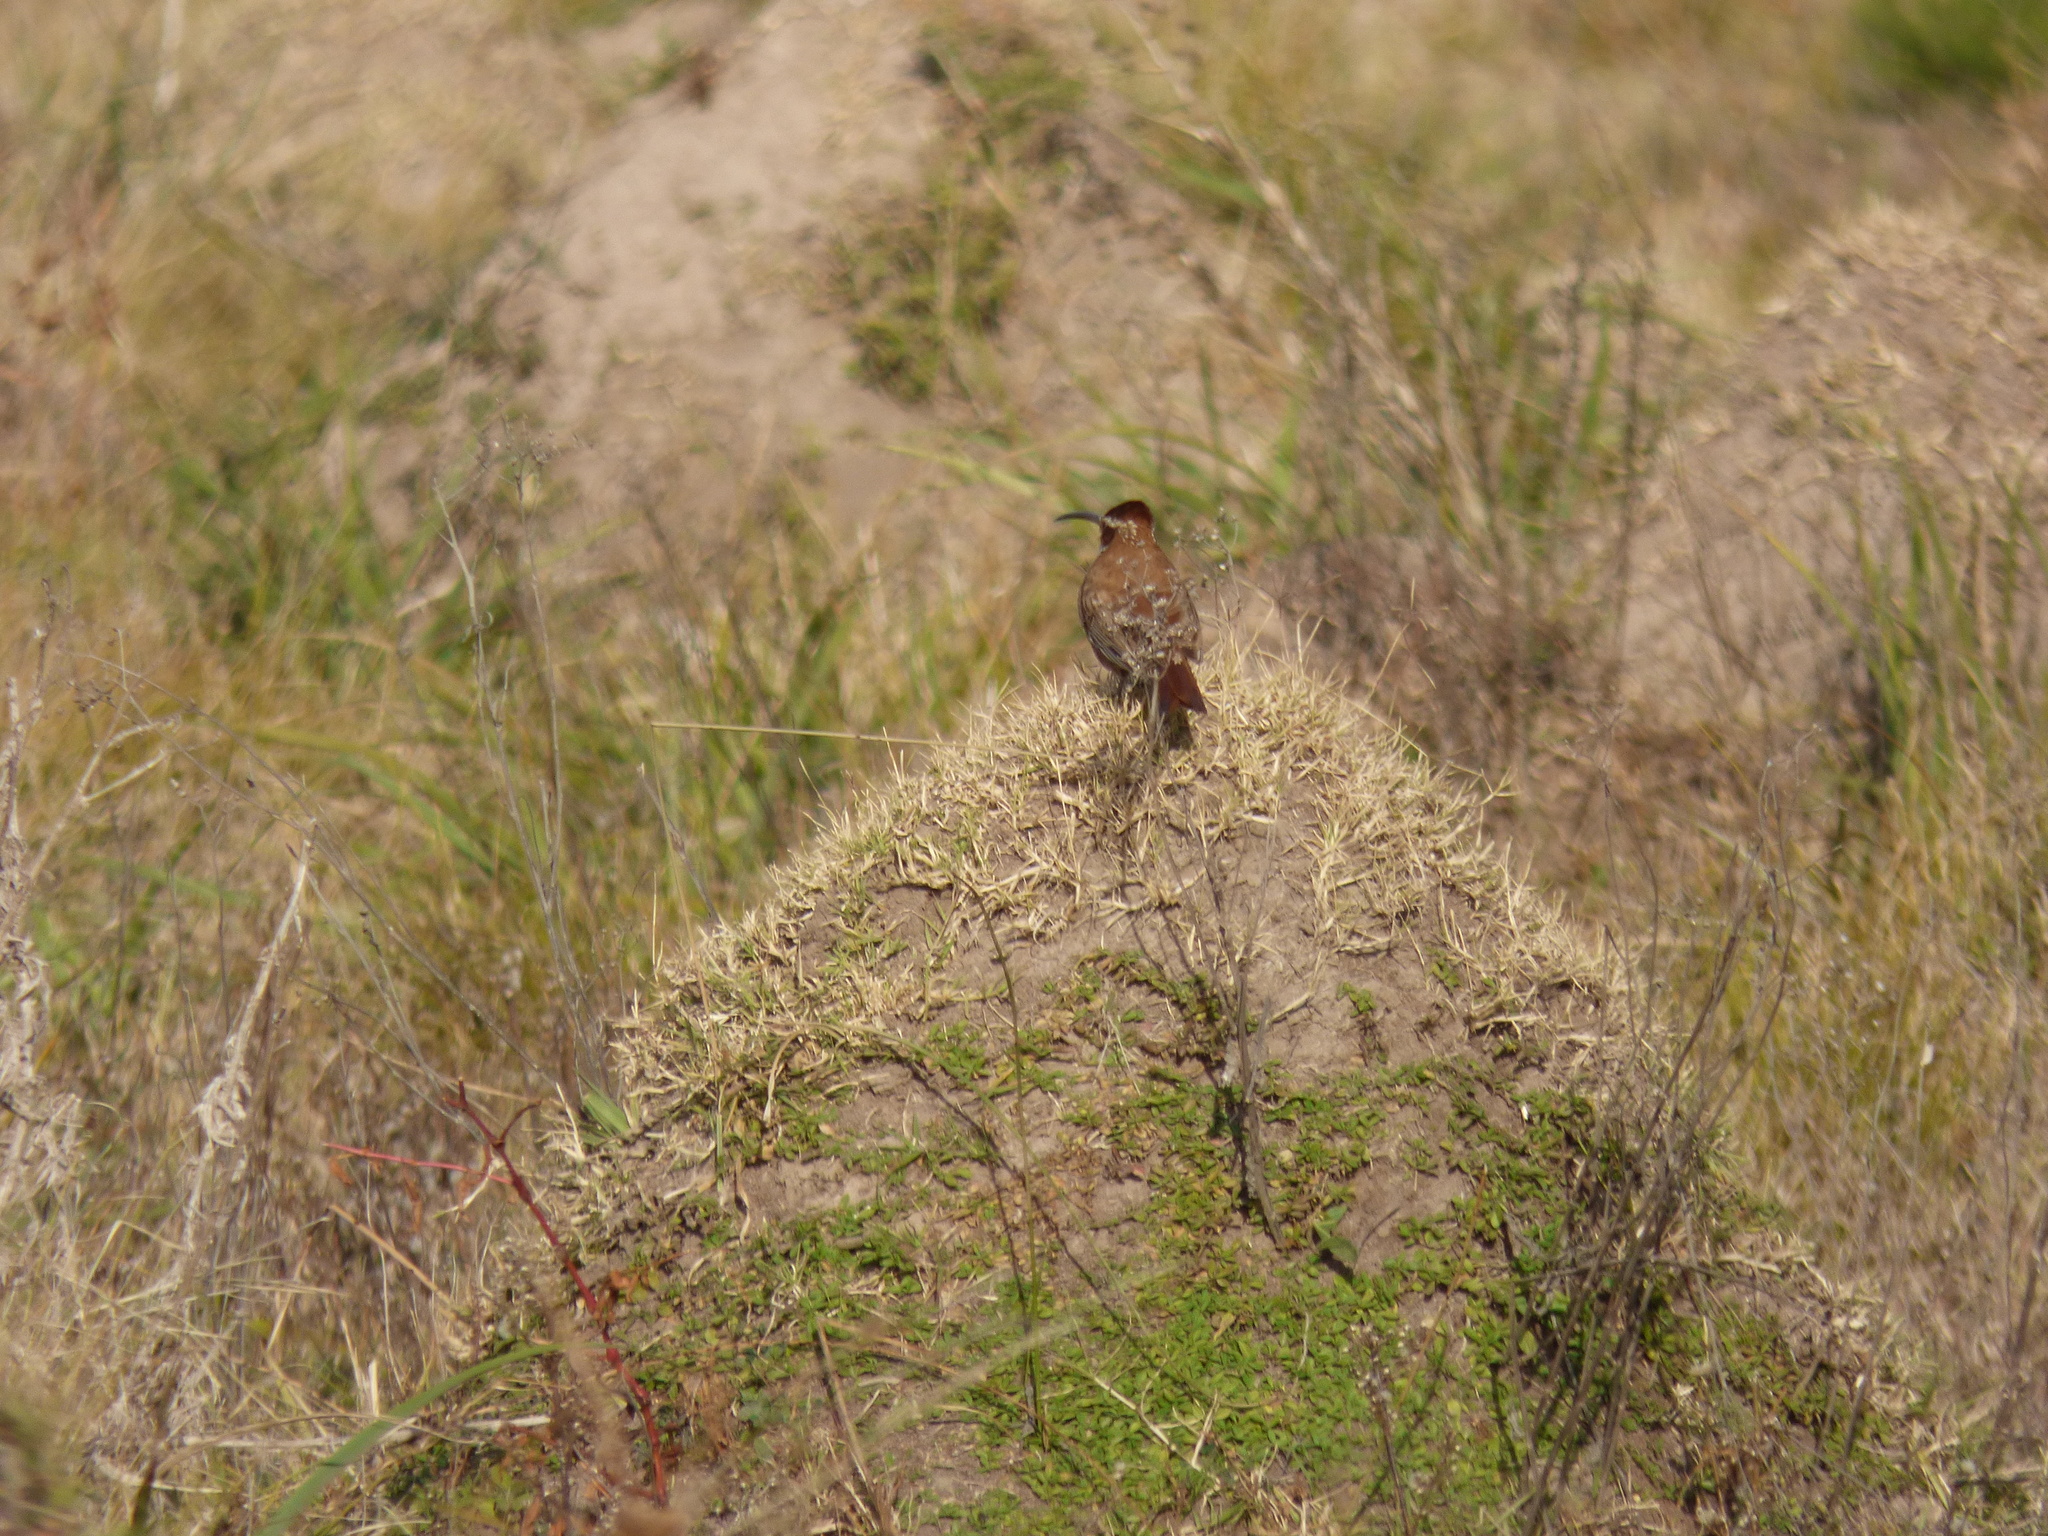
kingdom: Animalia
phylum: Chordata
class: Aves
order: Passeriformes
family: Furnariidae
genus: Drymornis
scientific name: Drymornis bridgesii
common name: Scimitar-billed woodcreeper
